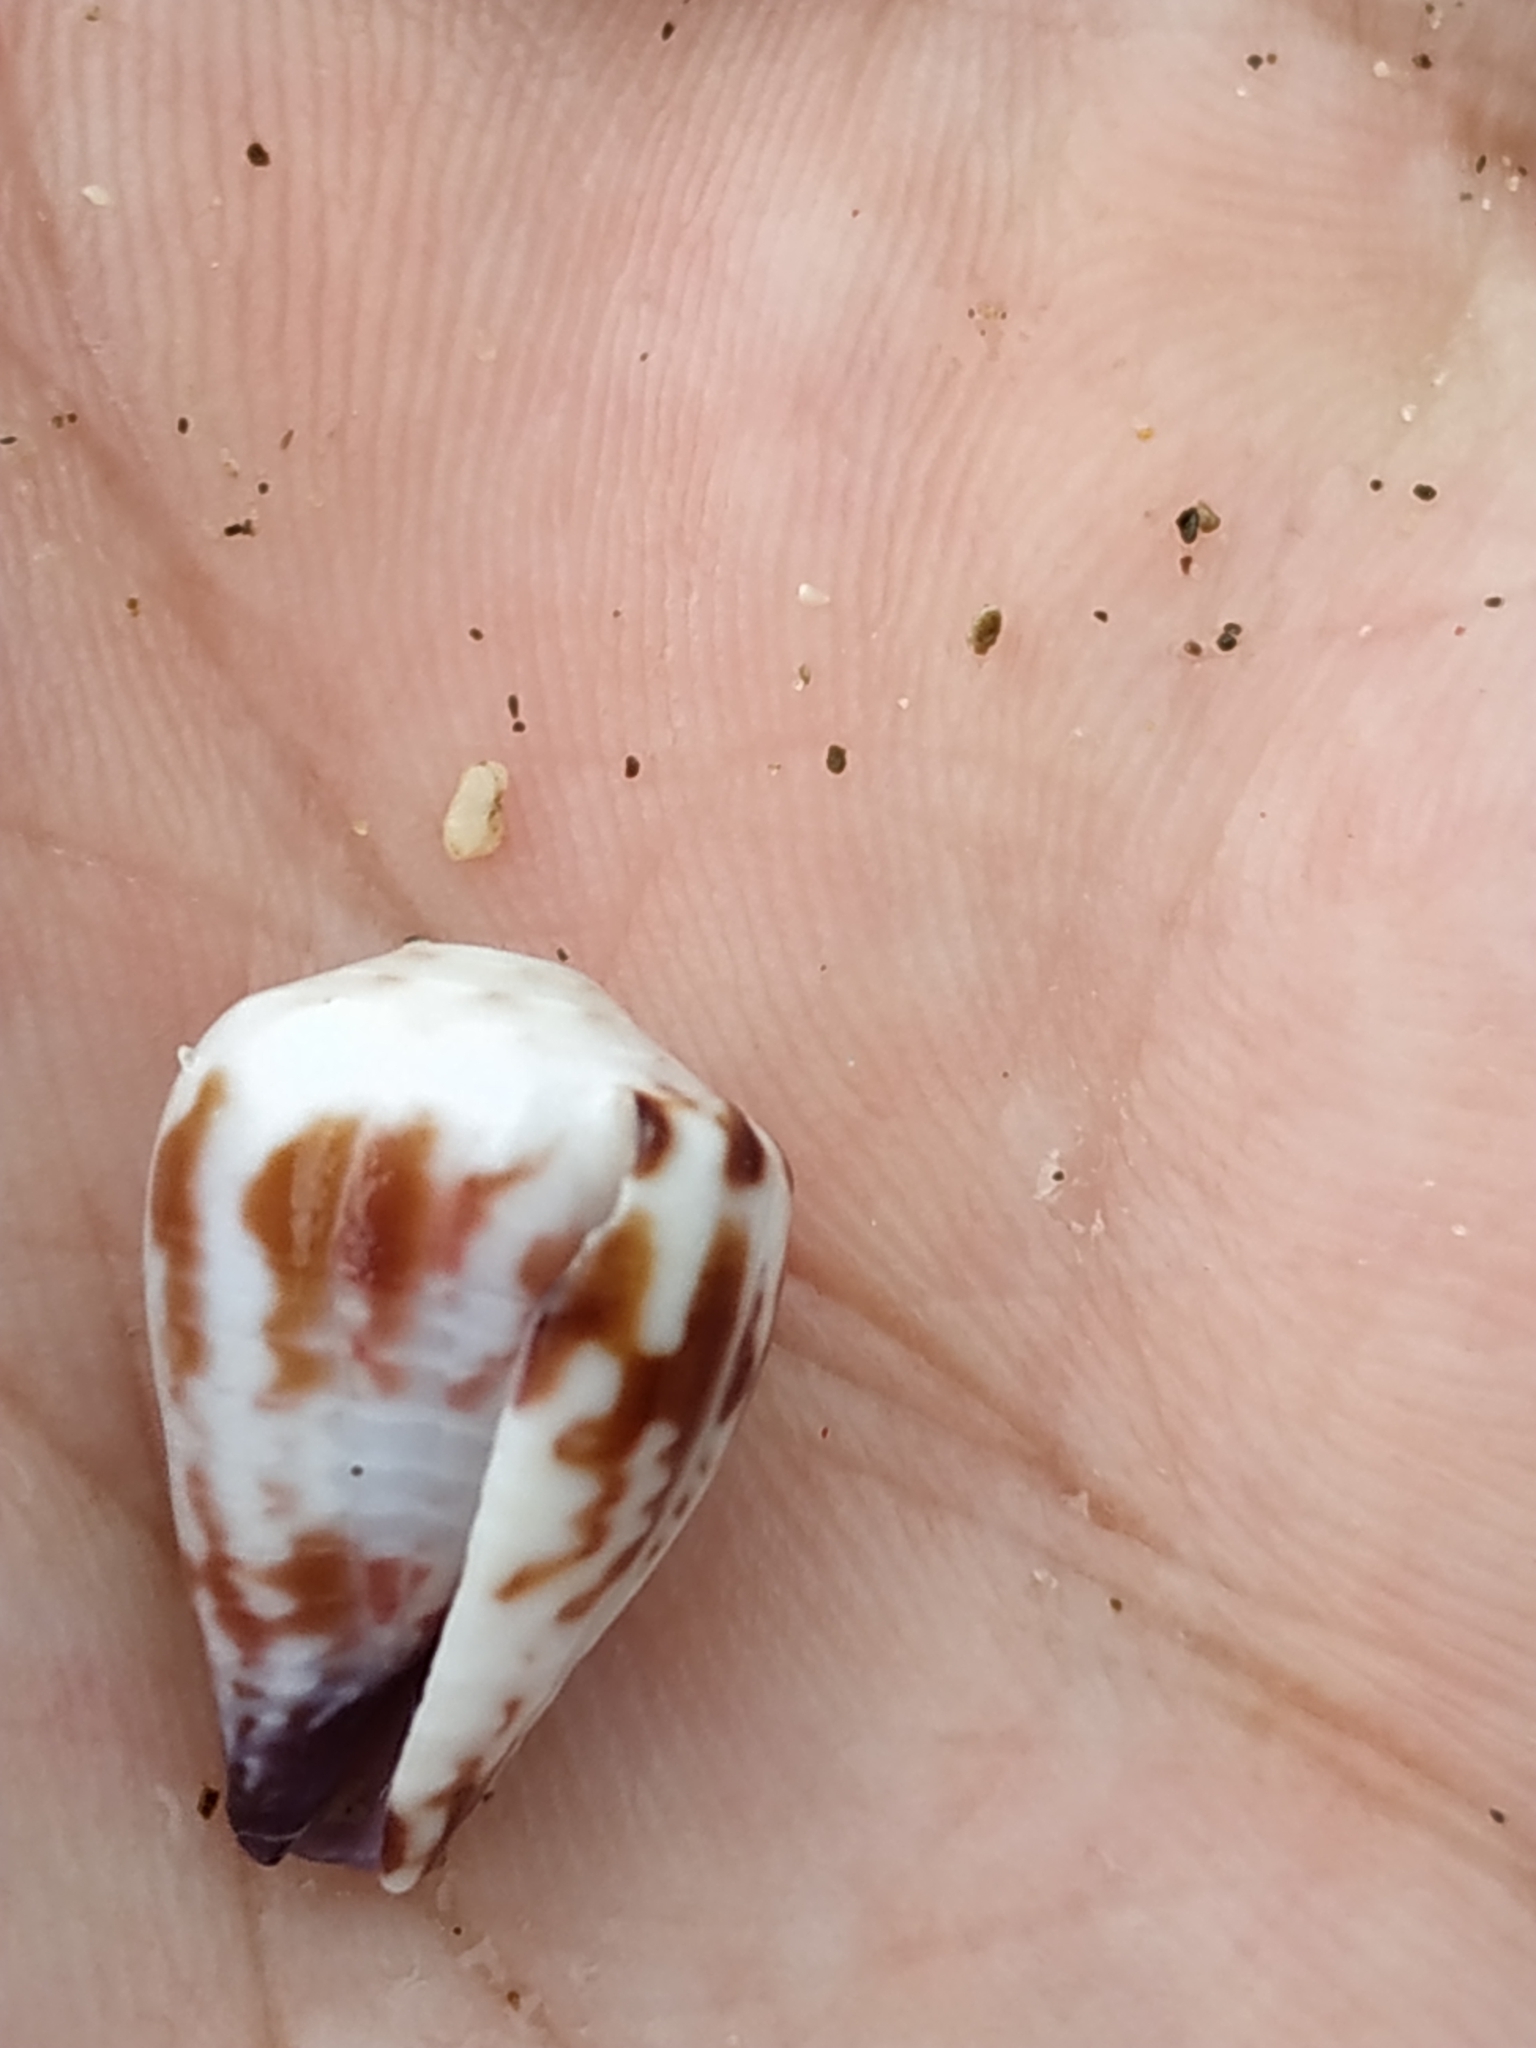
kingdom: Animalia
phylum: Mollusca
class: Gastropoda
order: Neogastropoda
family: Conidae
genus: Conus
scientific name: Conus sponsalis
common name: Sponsal cone
